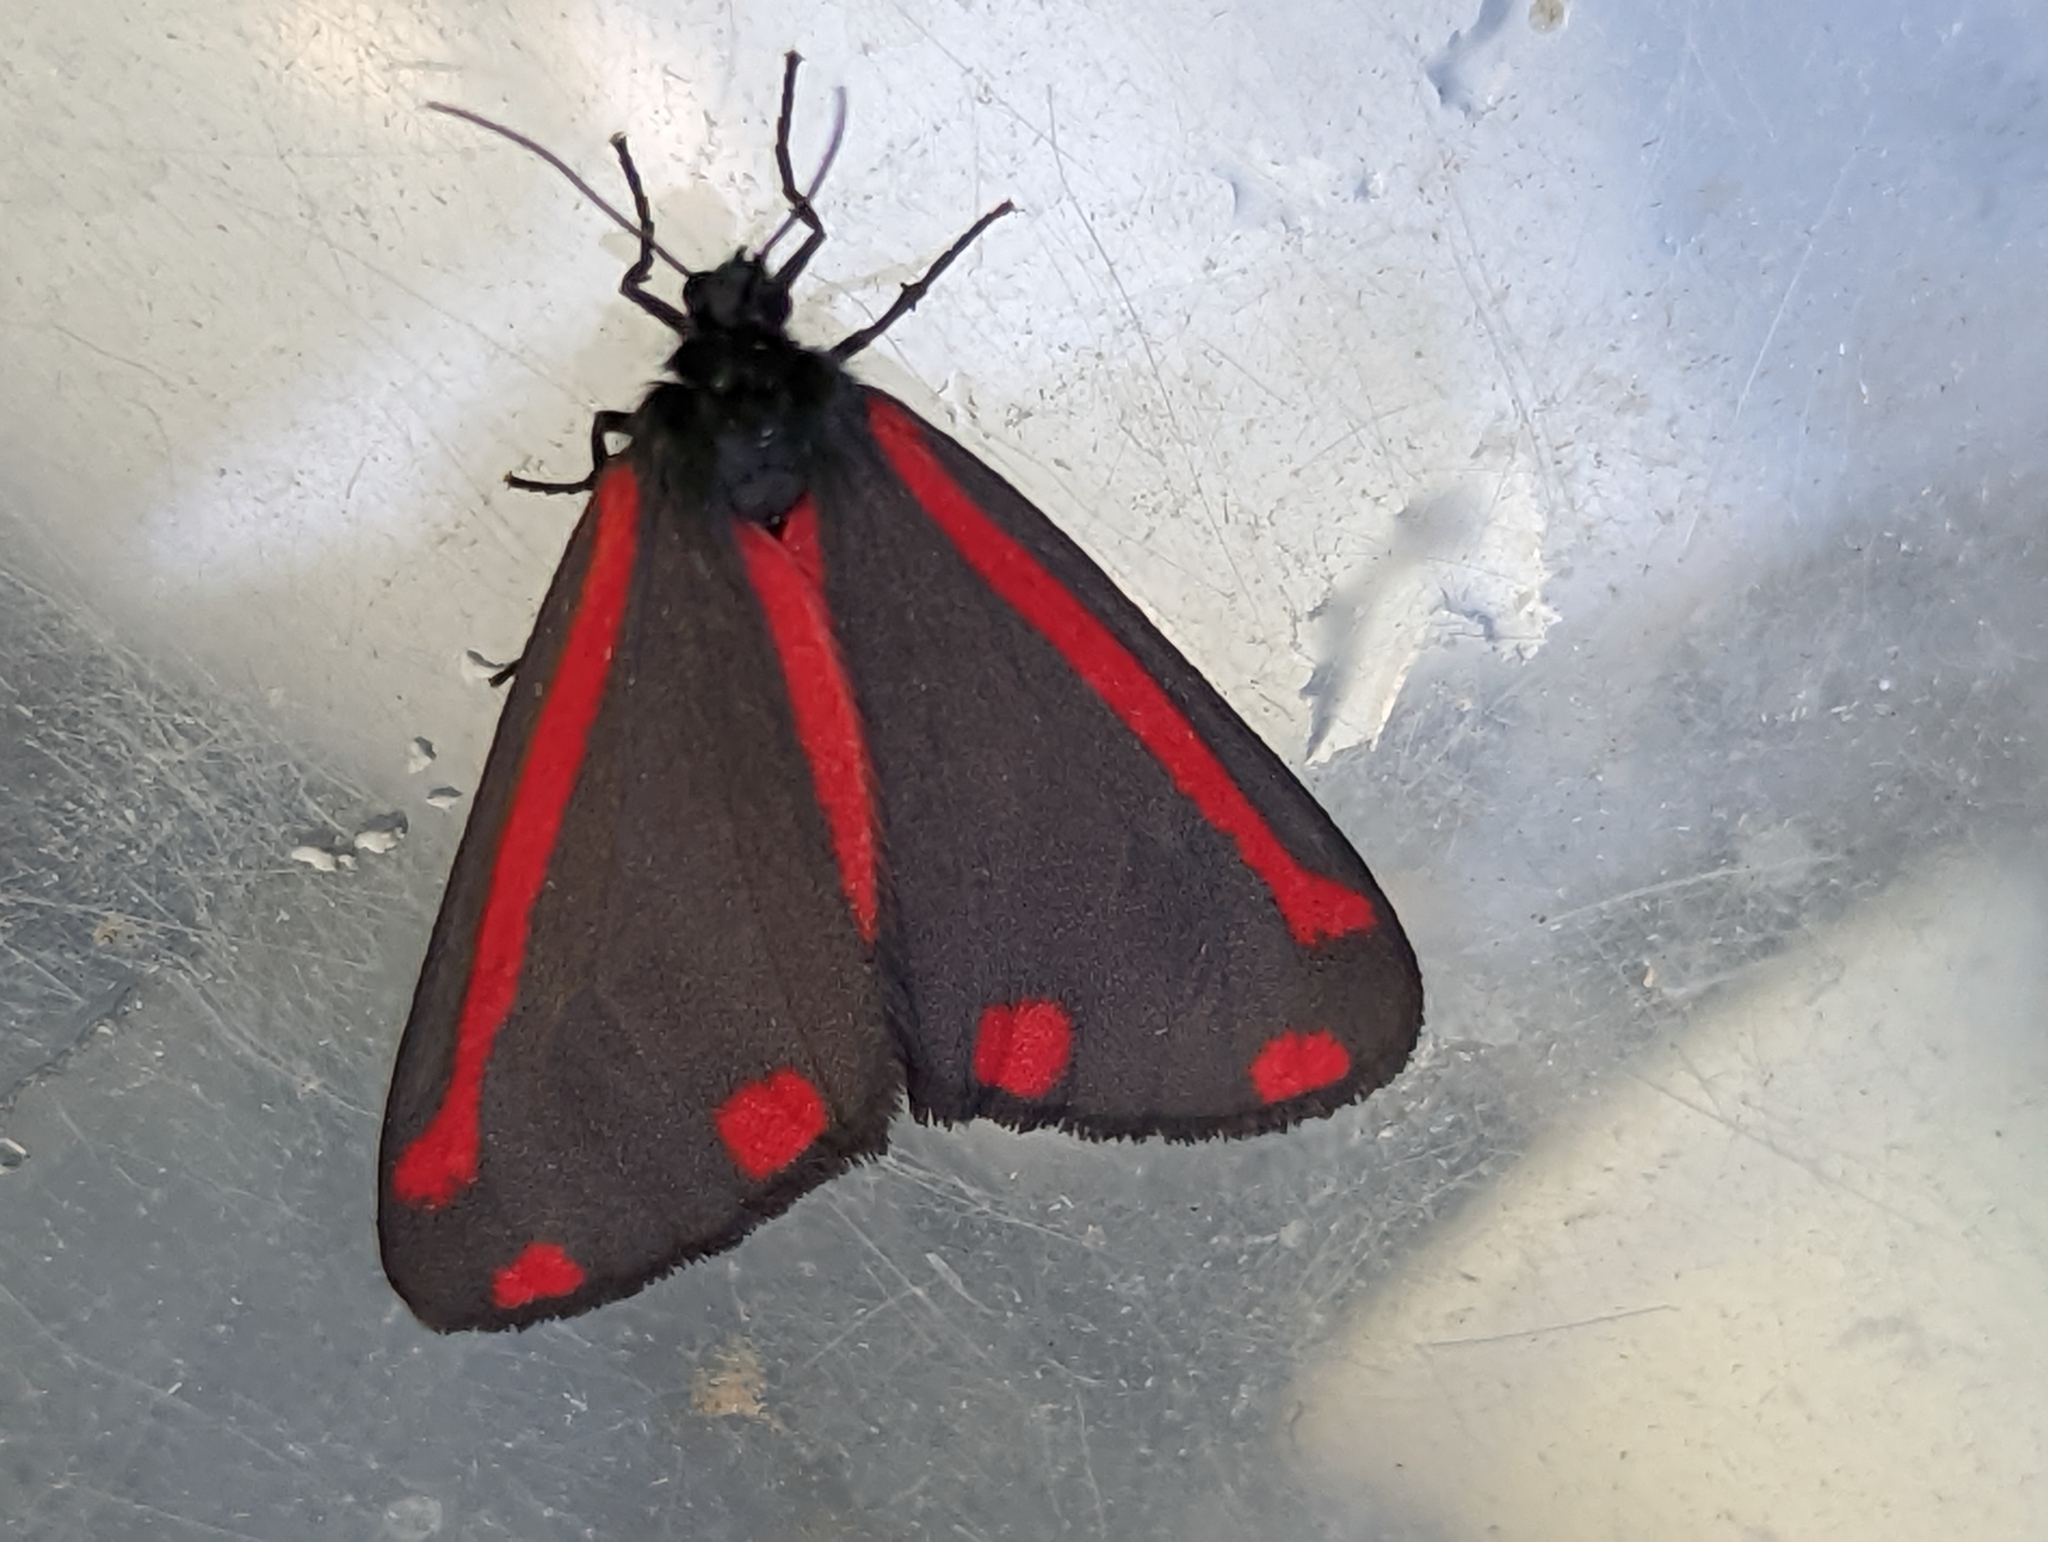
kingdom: Animalia
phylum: Arthropoda
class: Insecta
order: Lepidoptera
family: Erebidae
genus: Tyria
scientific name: Tyria jacobaeae
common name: Cinnabar
